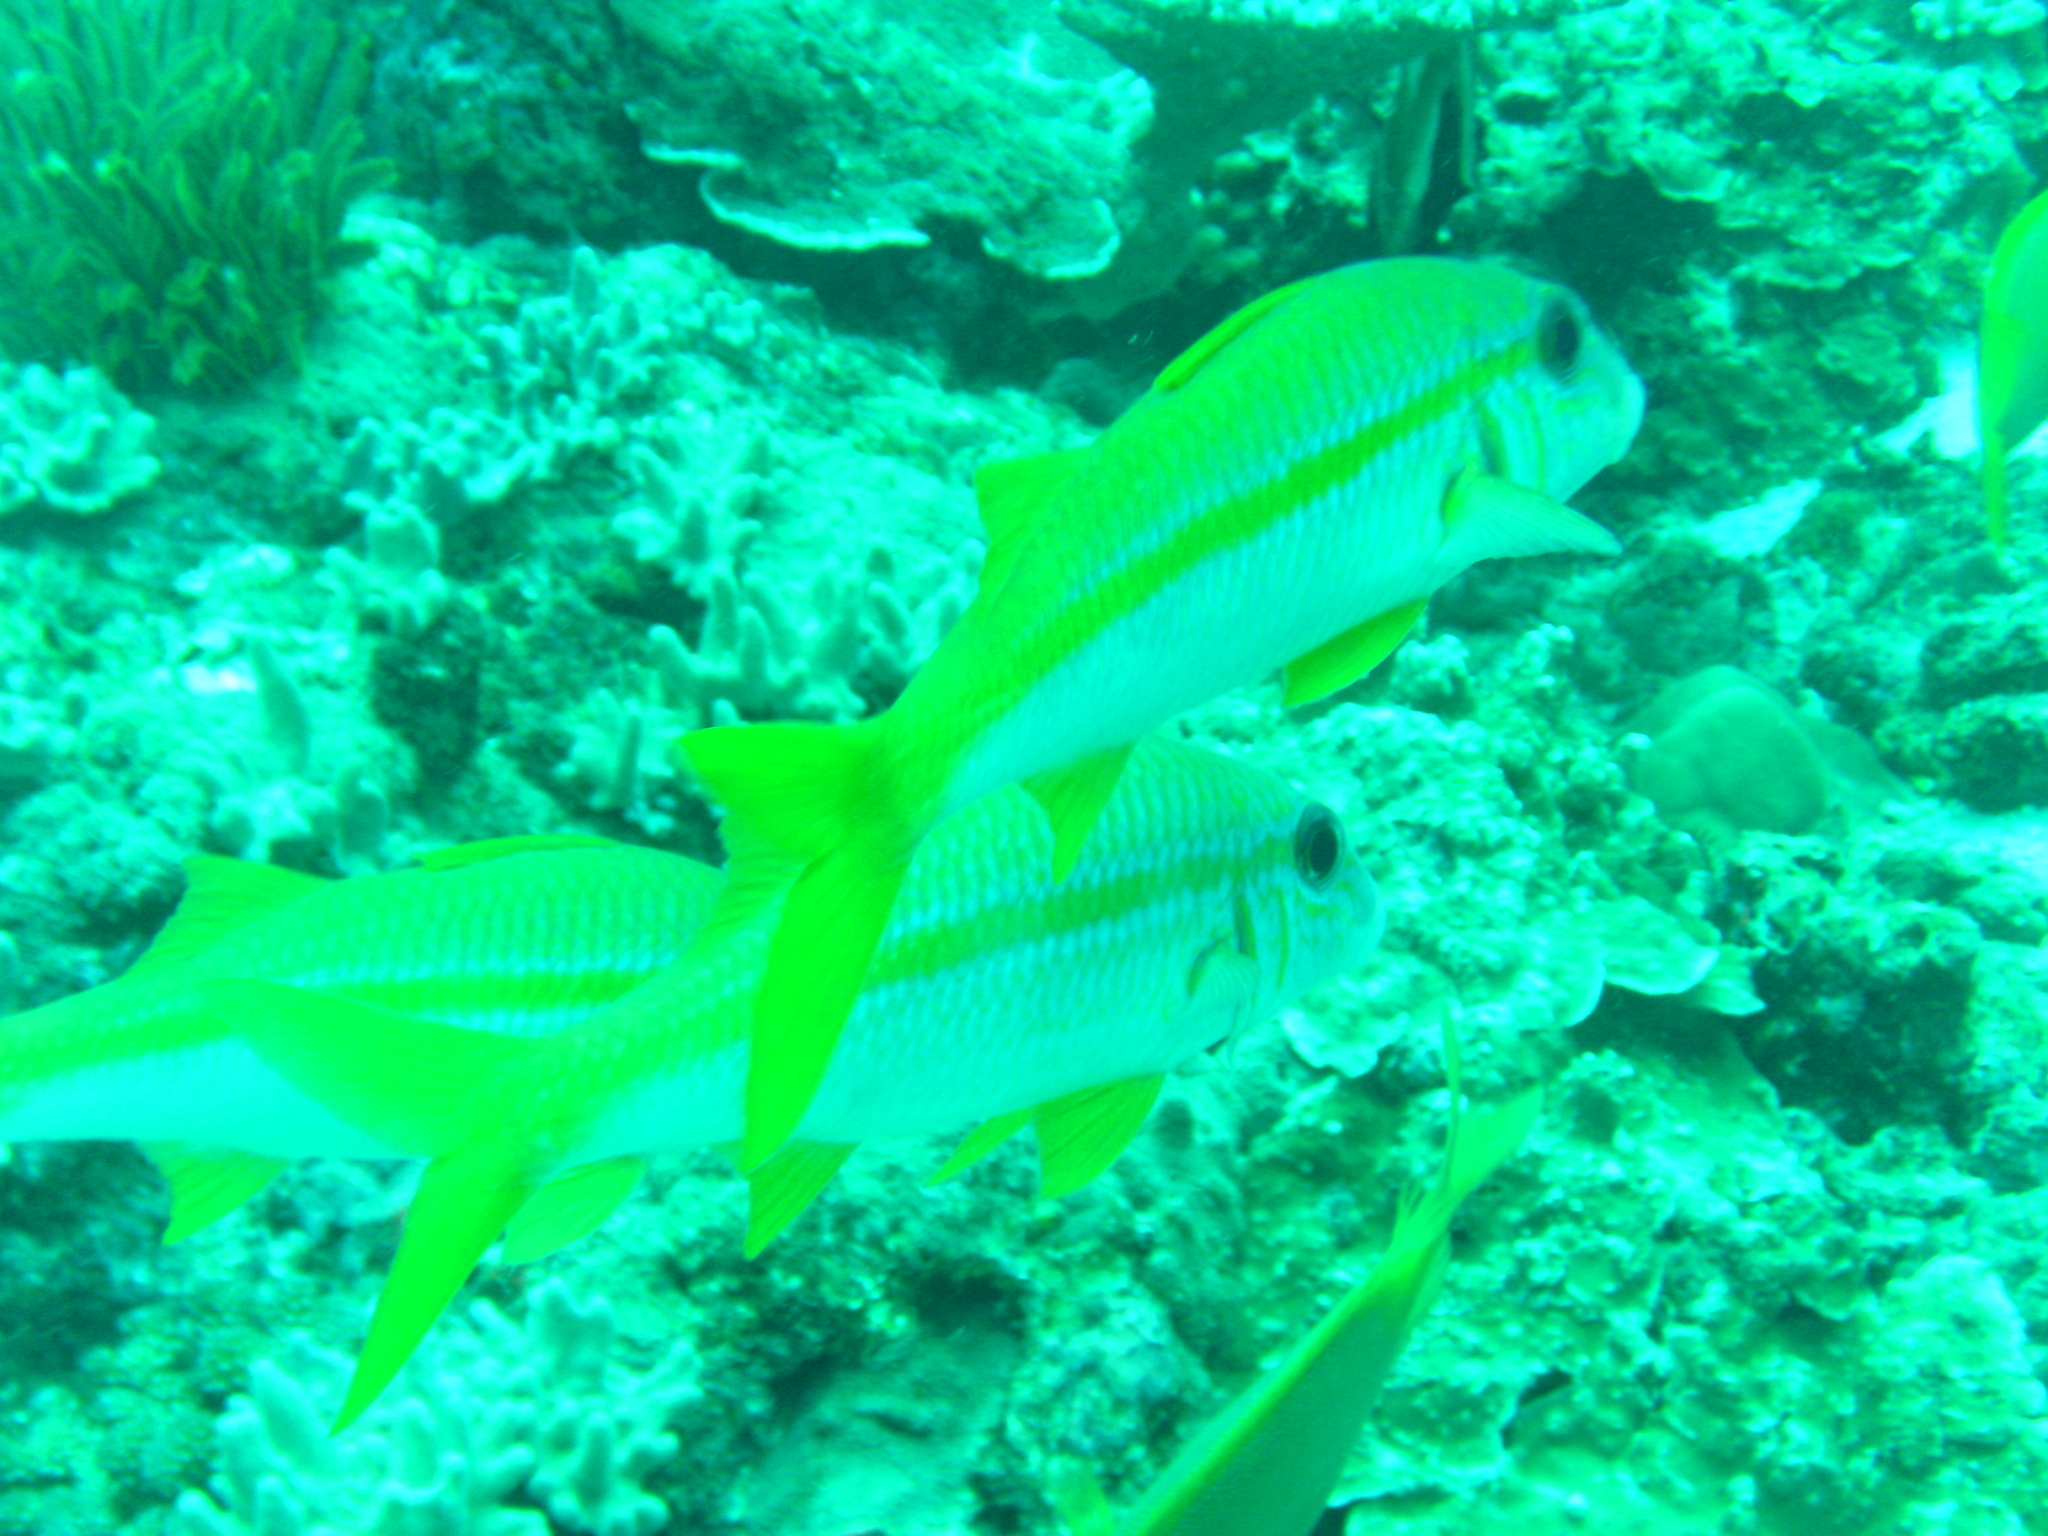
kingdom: Animalia
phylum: Chordata
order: Perciformes
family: Mullidae
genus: Mulloidichthys
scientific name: Mulloidichthys vanicolensis
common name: Yellowfin goatfish
